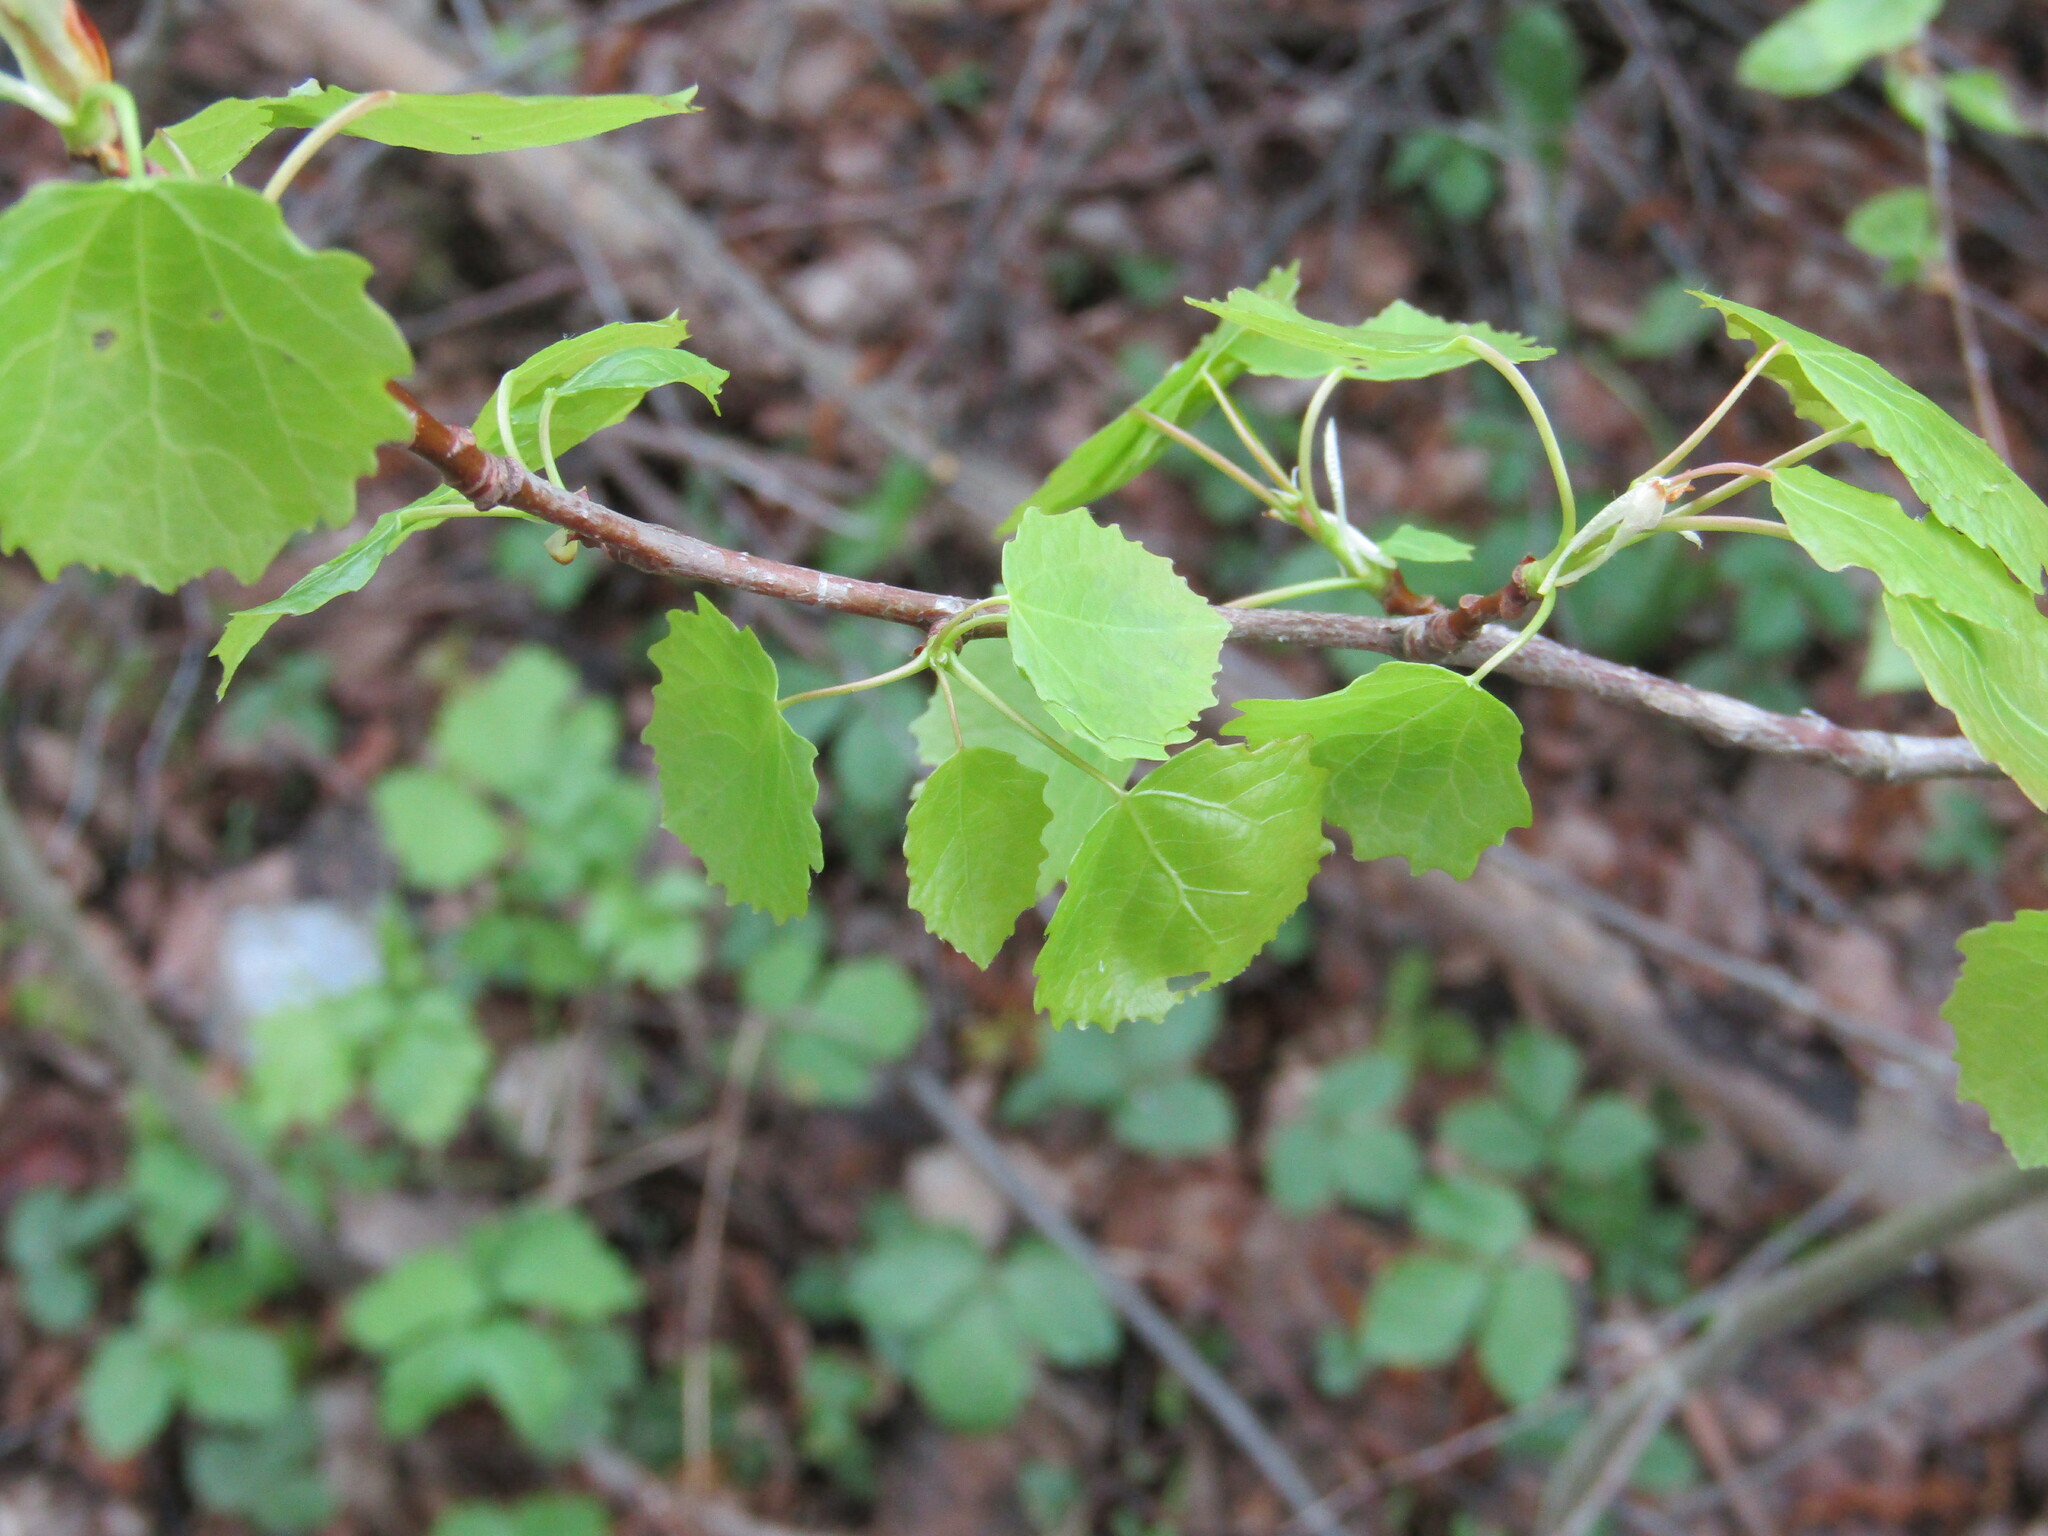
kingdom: Plantae
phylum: Tracheophyta
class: Magnoliopsida
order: Malpighiales
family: Salicaceae
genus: Populus
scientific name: Populus tremula
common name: European aspen
